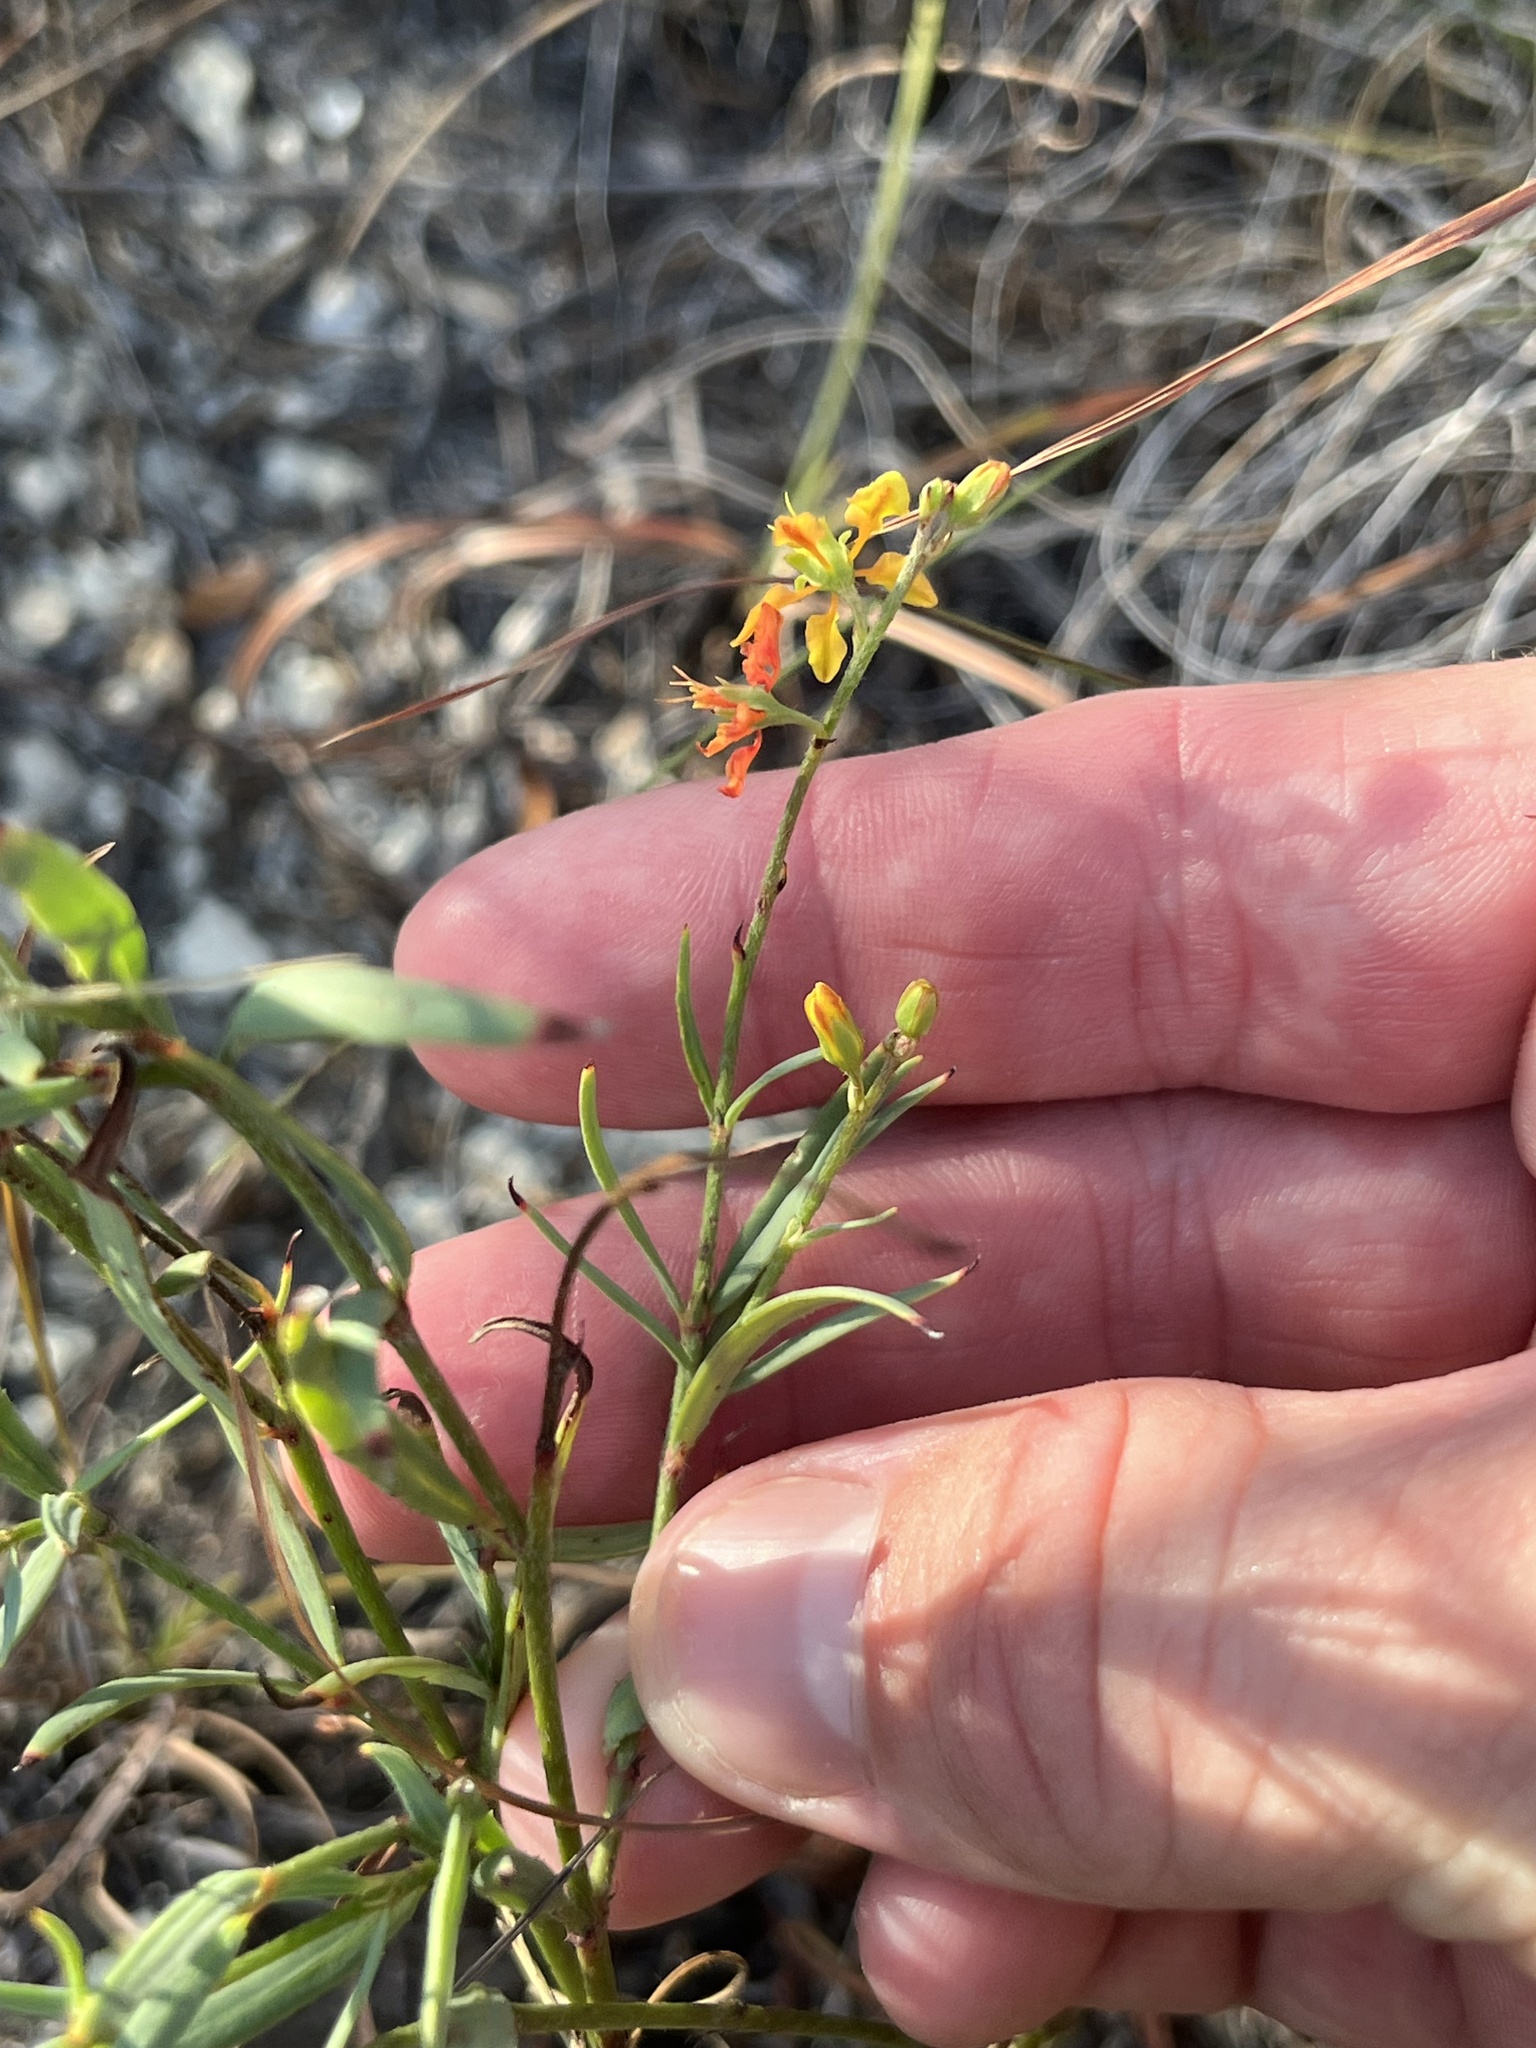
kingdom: Plantae
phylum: Tracheophyta
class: Magnoliopsida
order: Malpighiales
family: Malpighiaceae
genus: Galphimia
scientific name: Galphimia angustifolia
